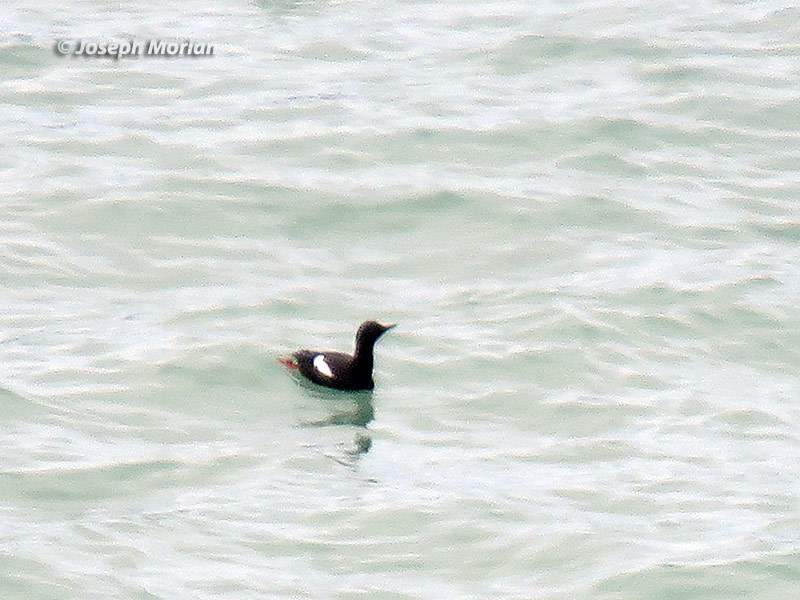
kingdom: Animalia
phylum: Chordata
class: Aves
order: Charadriiformes
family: Alcidae
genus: Cepphus
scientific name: Cepphus columba
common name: Pigeon guillemot
